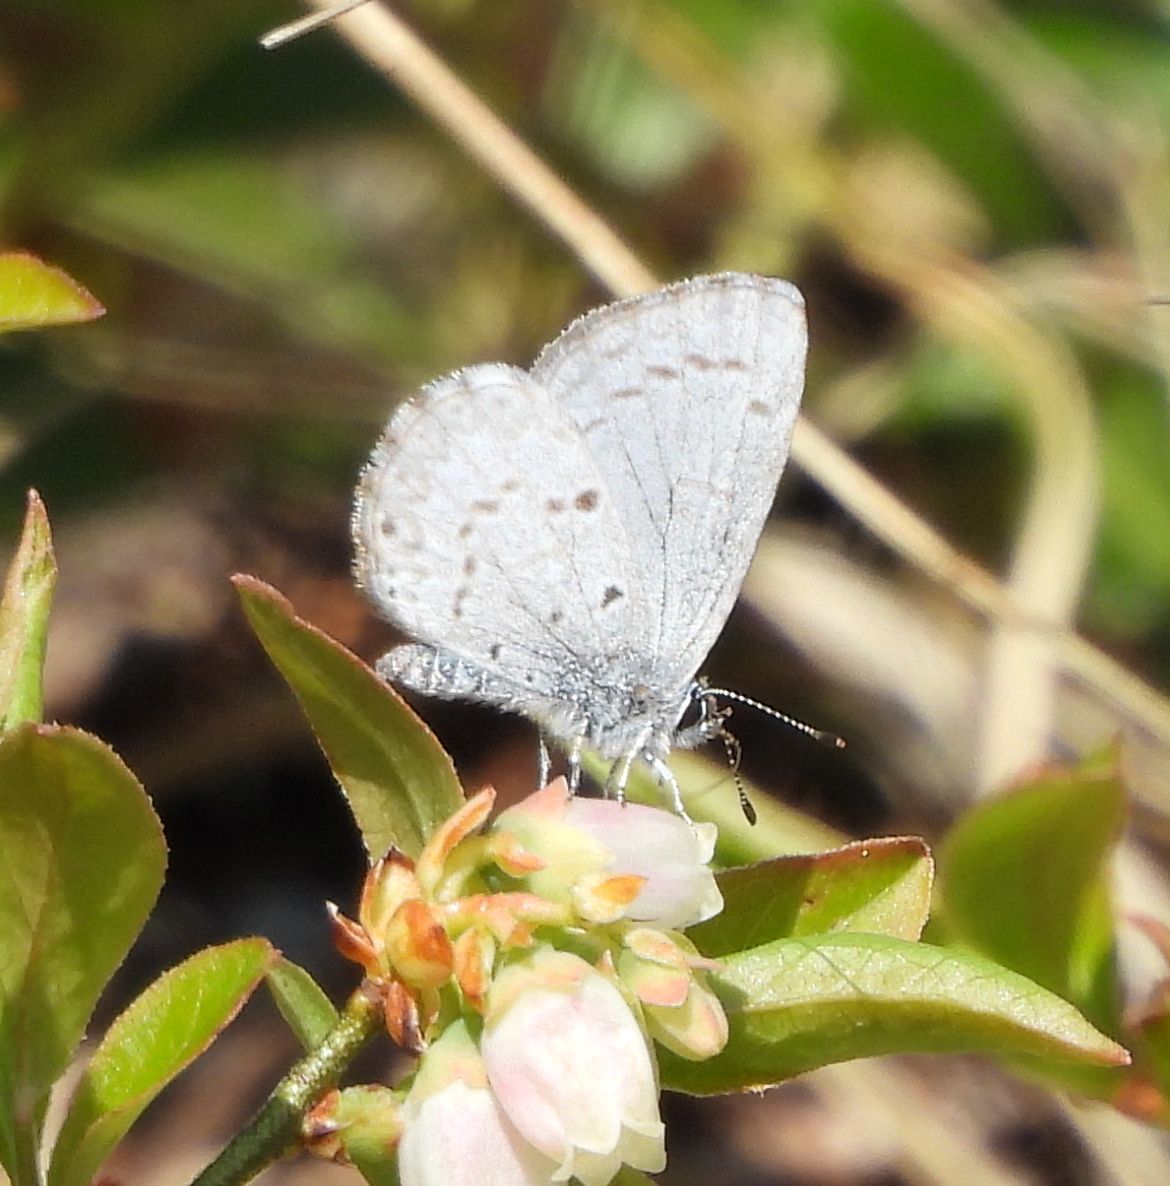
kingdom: Animalia
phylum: Arthropoda
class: Insecta
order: Lepidoptera
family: Lycaenidae
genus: Celastrina
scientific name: Celastrina lucia
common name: Lucia azure
